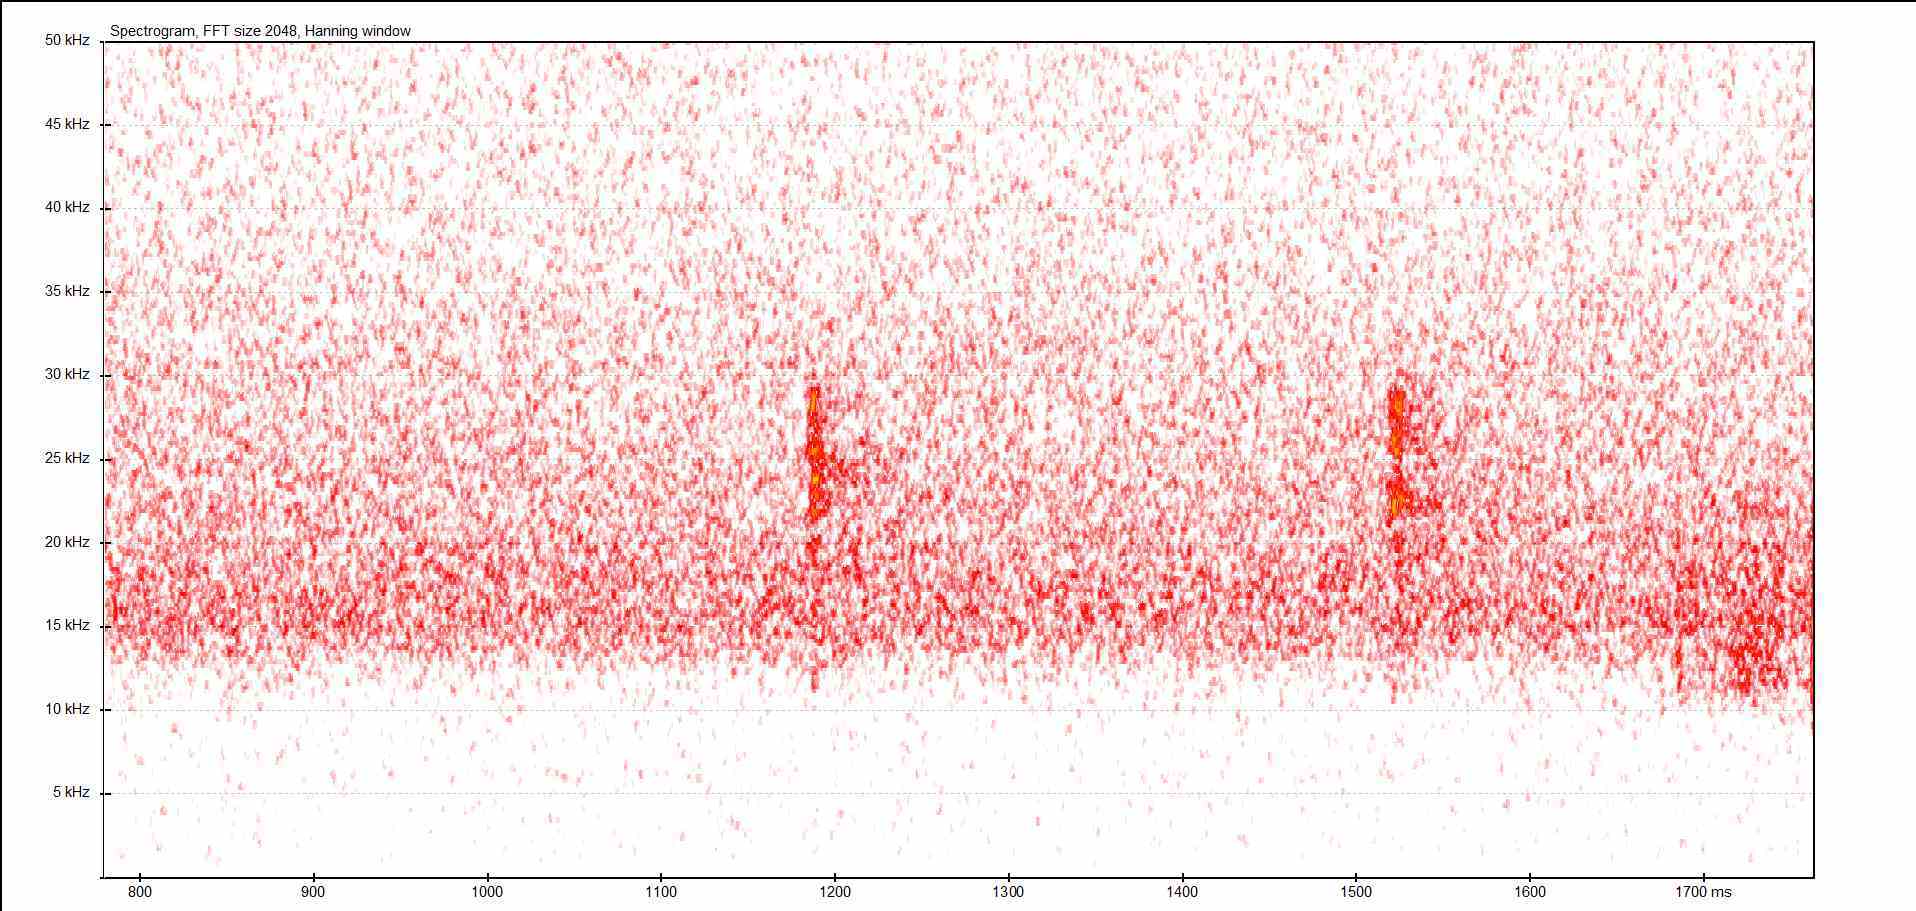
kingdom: Animalia
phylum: Arthropoda
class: Insecta
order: Orthoptera
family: Tettigoniidae
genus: Barbitistes
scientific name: Barbitistes serricauda
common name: Saw-tailed bush-cricket
